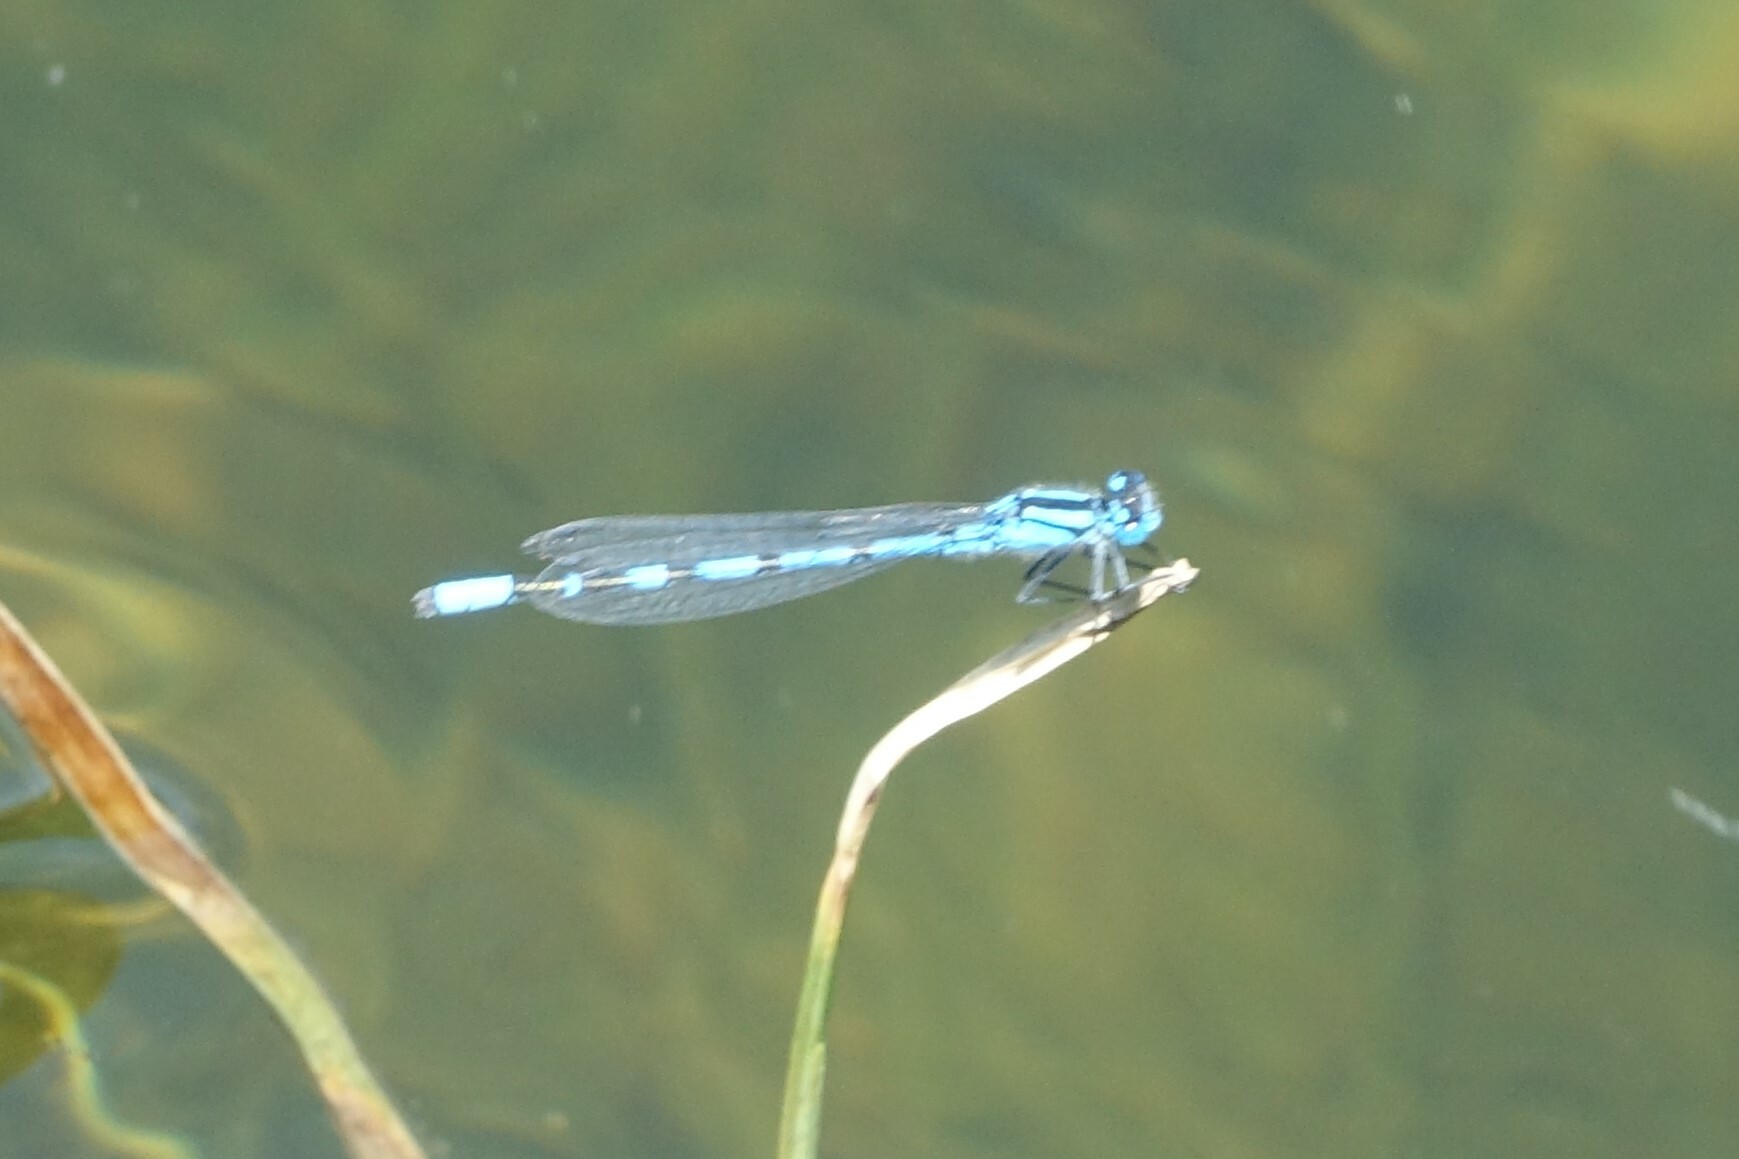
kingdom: Animalia
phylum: Arthropoda
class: Insecta
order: Odonata
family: Coenagrionidae
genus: Enallagma
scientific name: Enallagma cyathigerum
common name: Common blue damselfly
